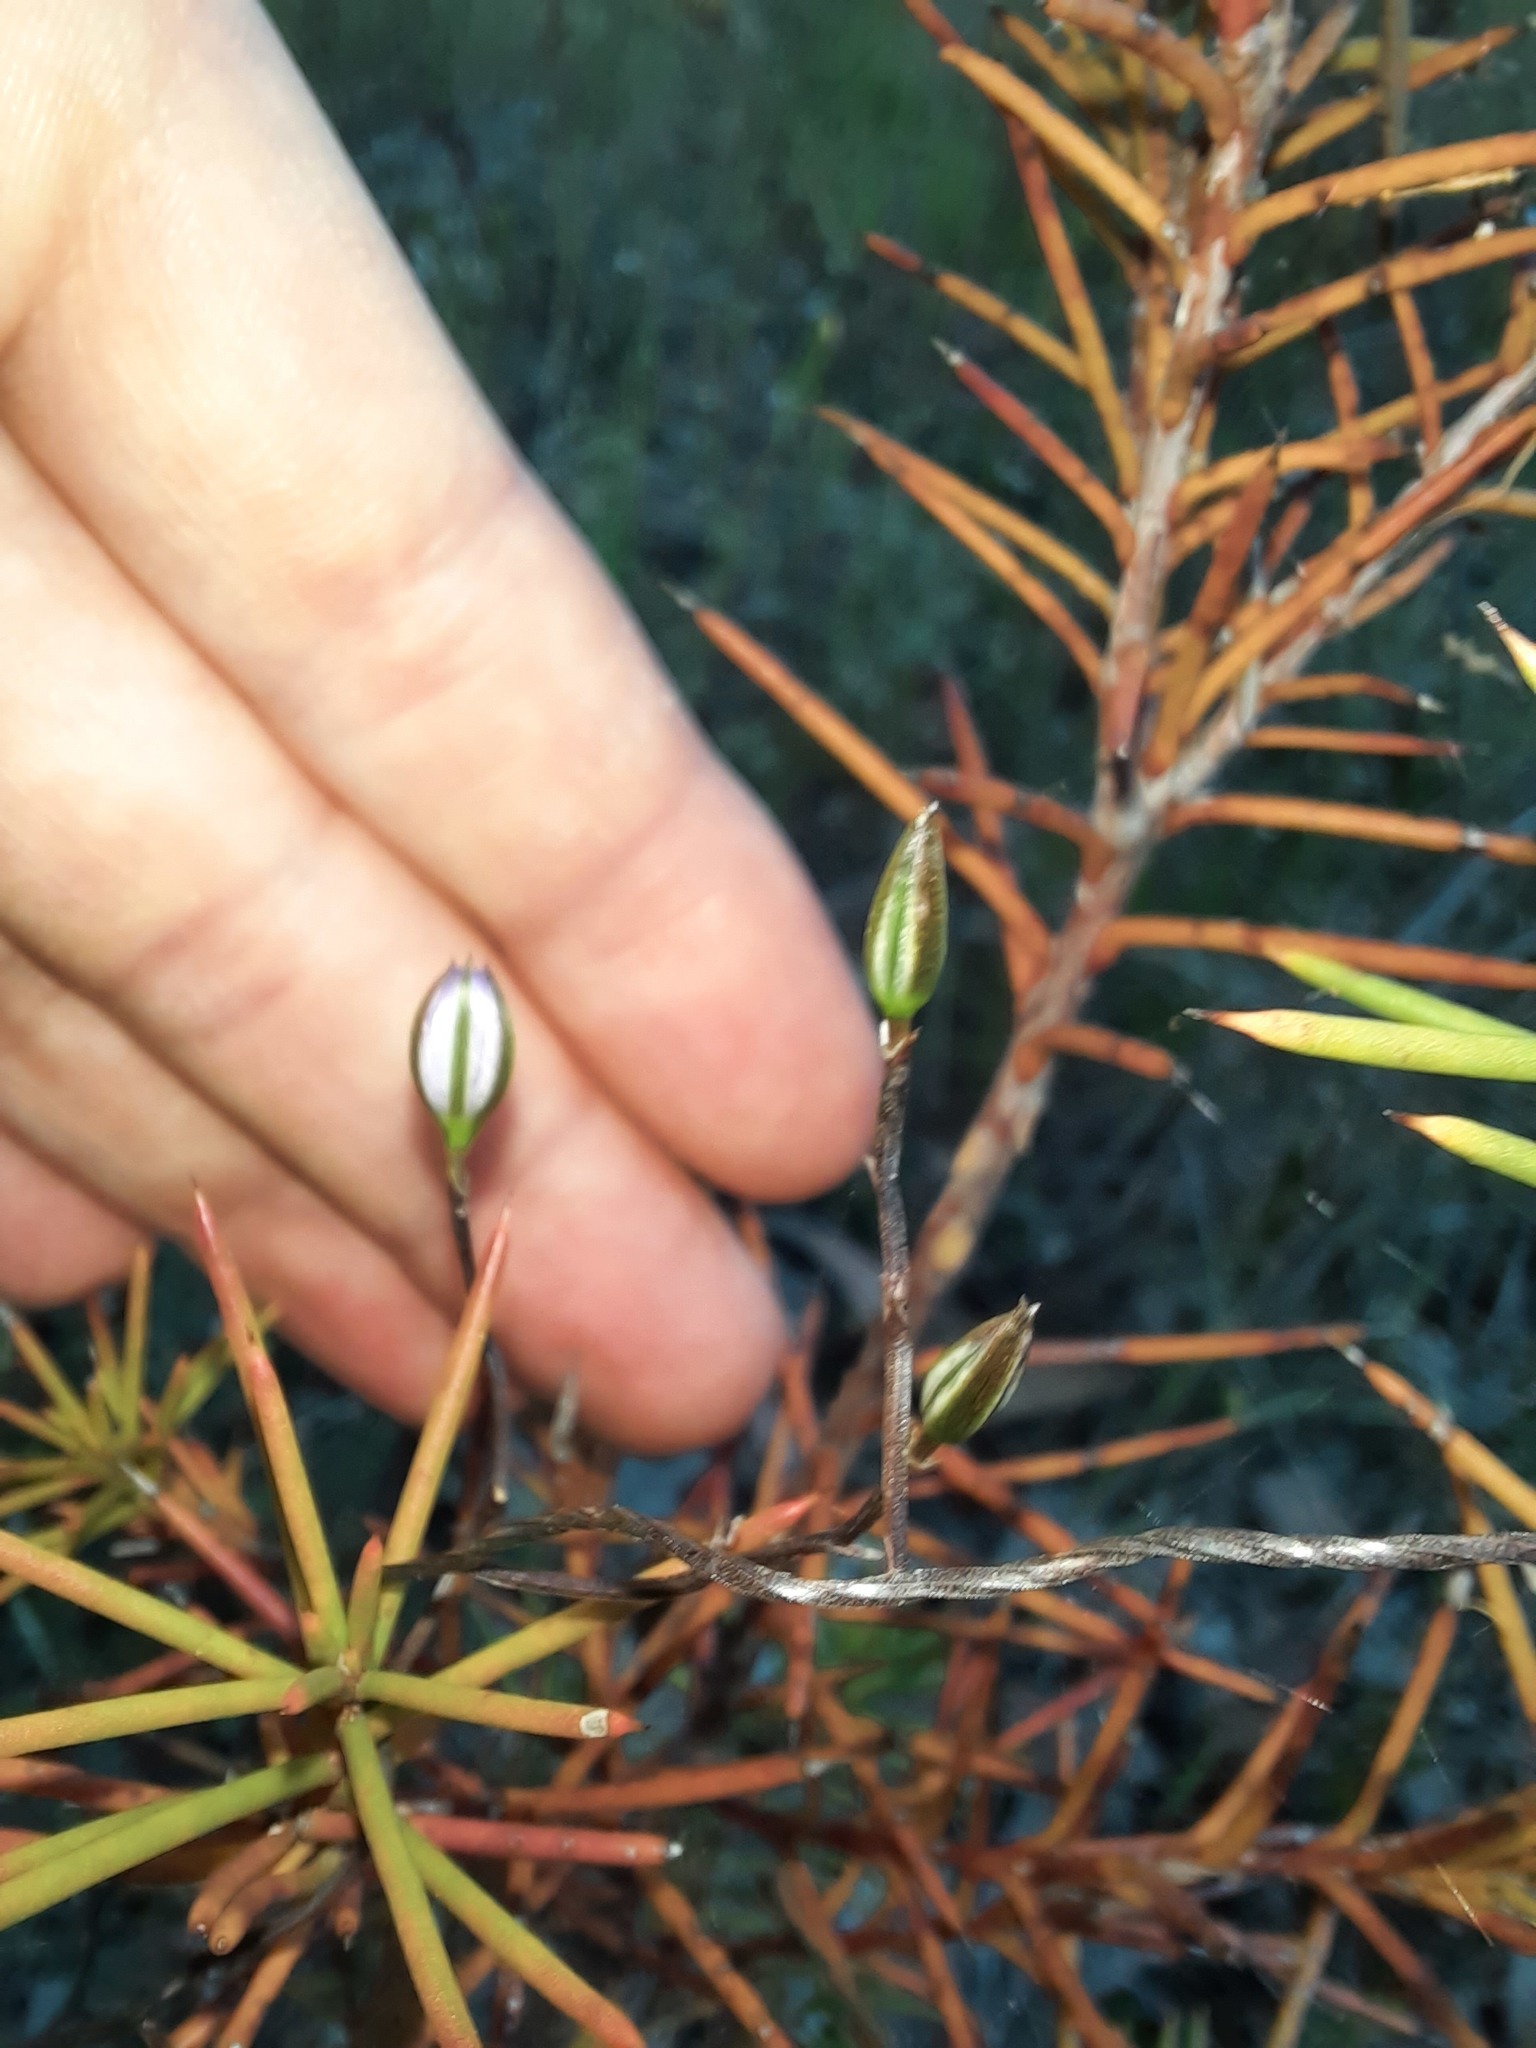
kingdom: Plantae
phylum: Tracheophyta
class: Liliopsida
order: Asparagales
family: Asparagaceae
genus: Thysanotus
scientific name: Thysanotus patersonii
